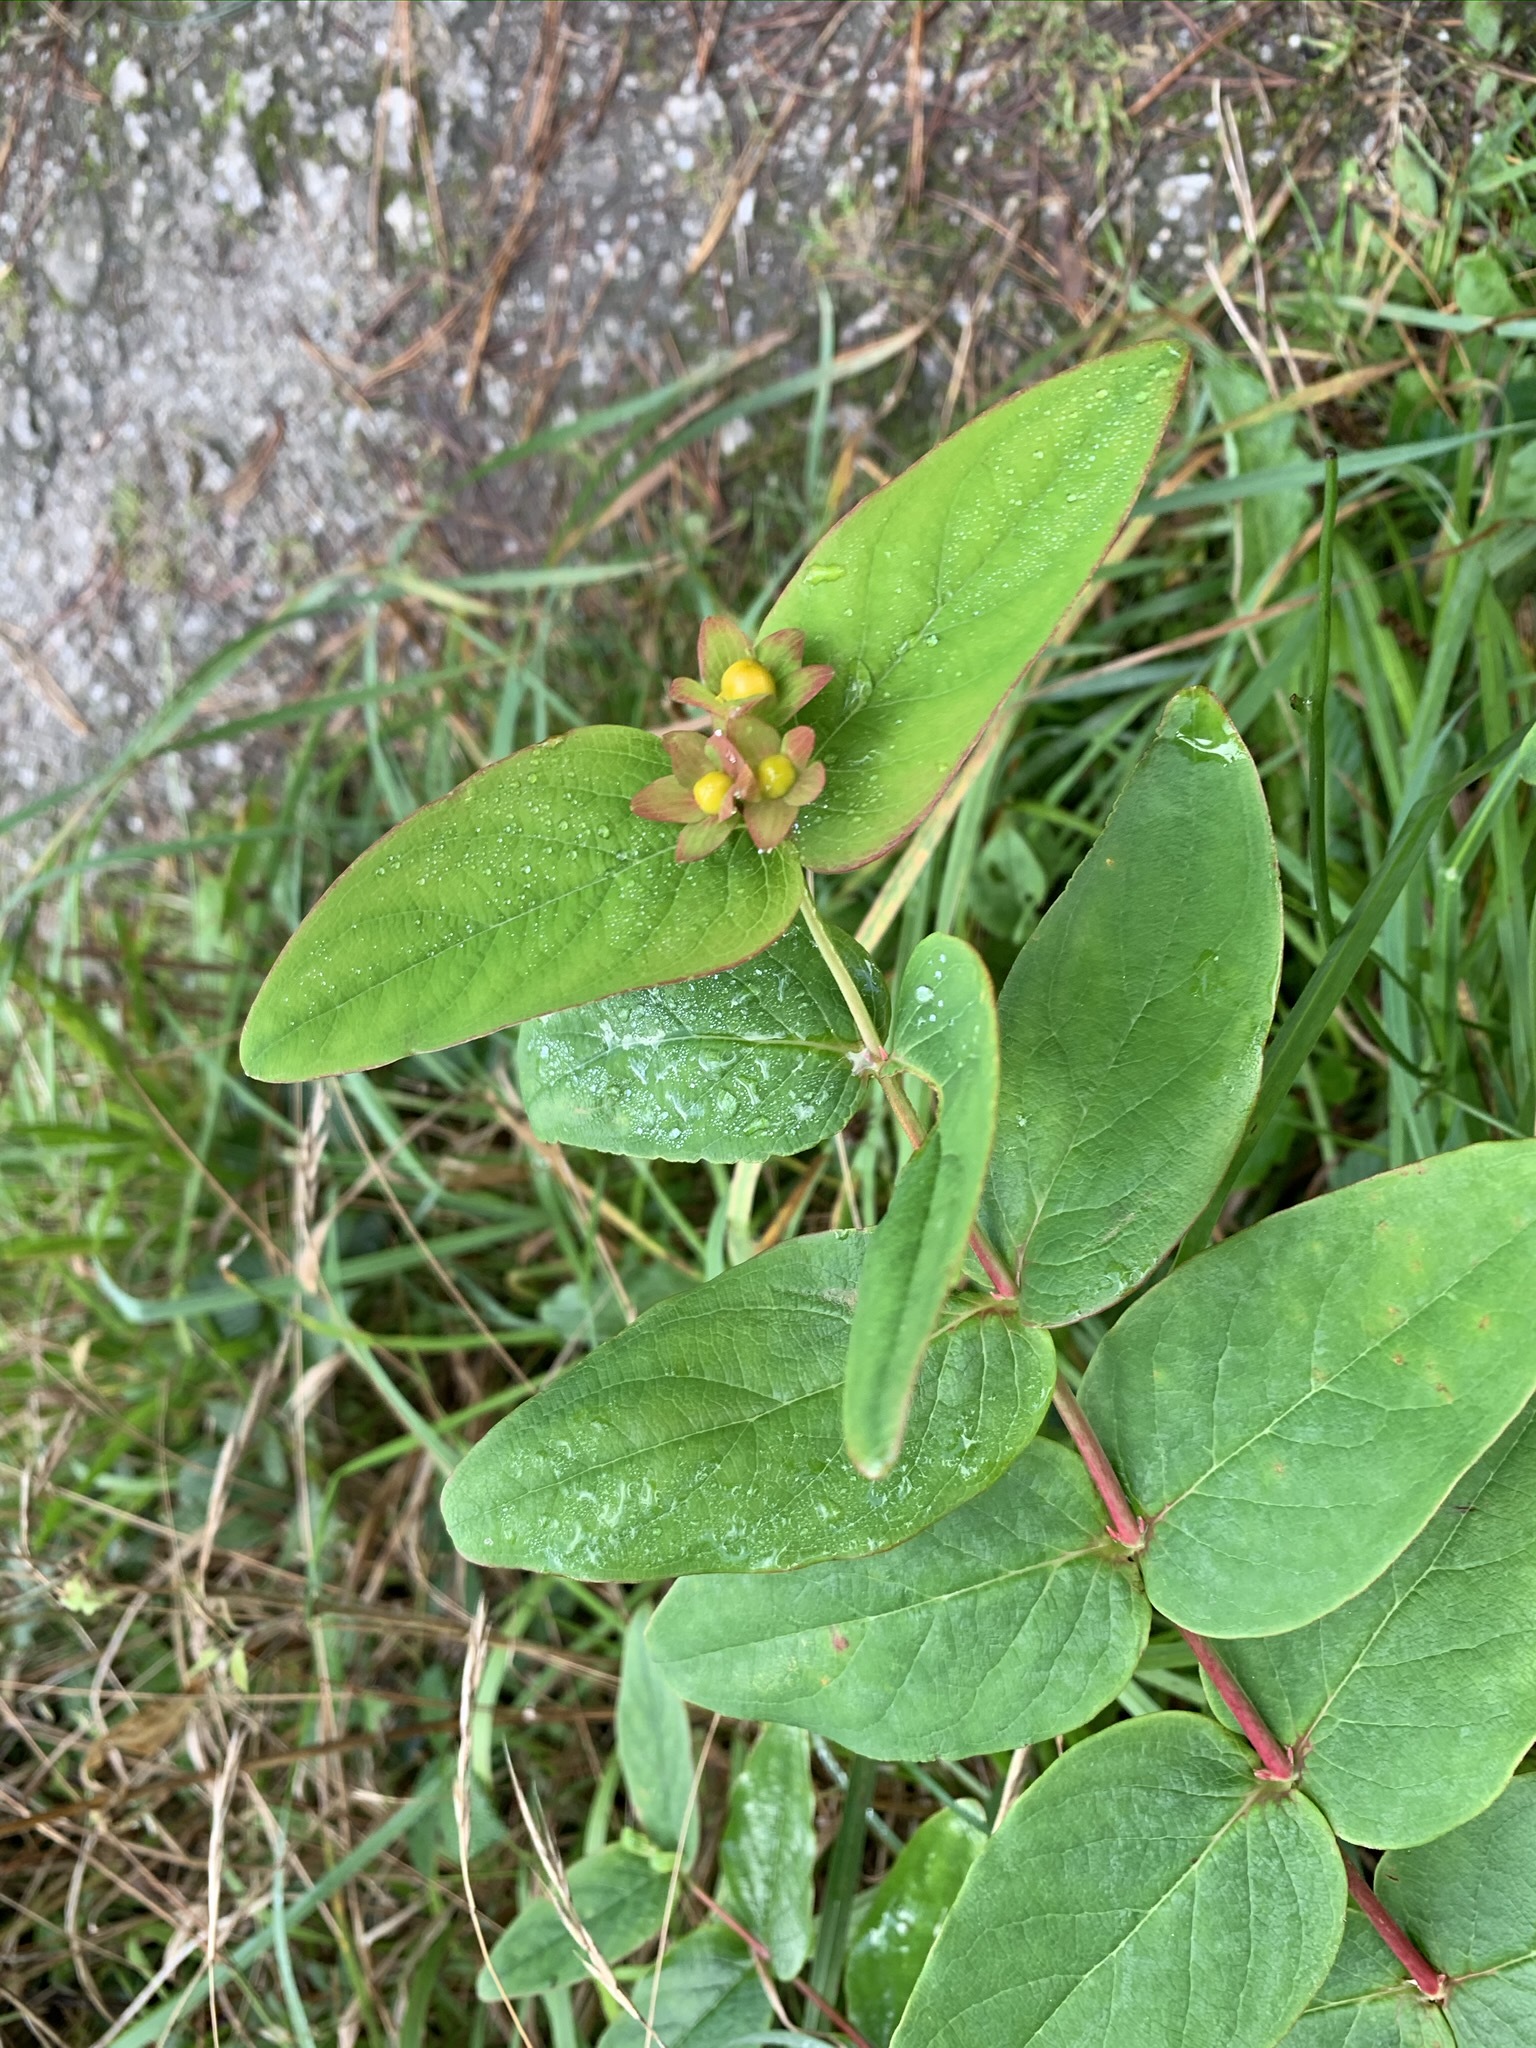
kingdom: Plantae
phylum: Tracheophyta
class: Magnoliopsida
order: Malpighiales
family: Hypericaceae
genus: Hypericum
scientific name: Hypericum androsaemum
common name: Sweet-amber
